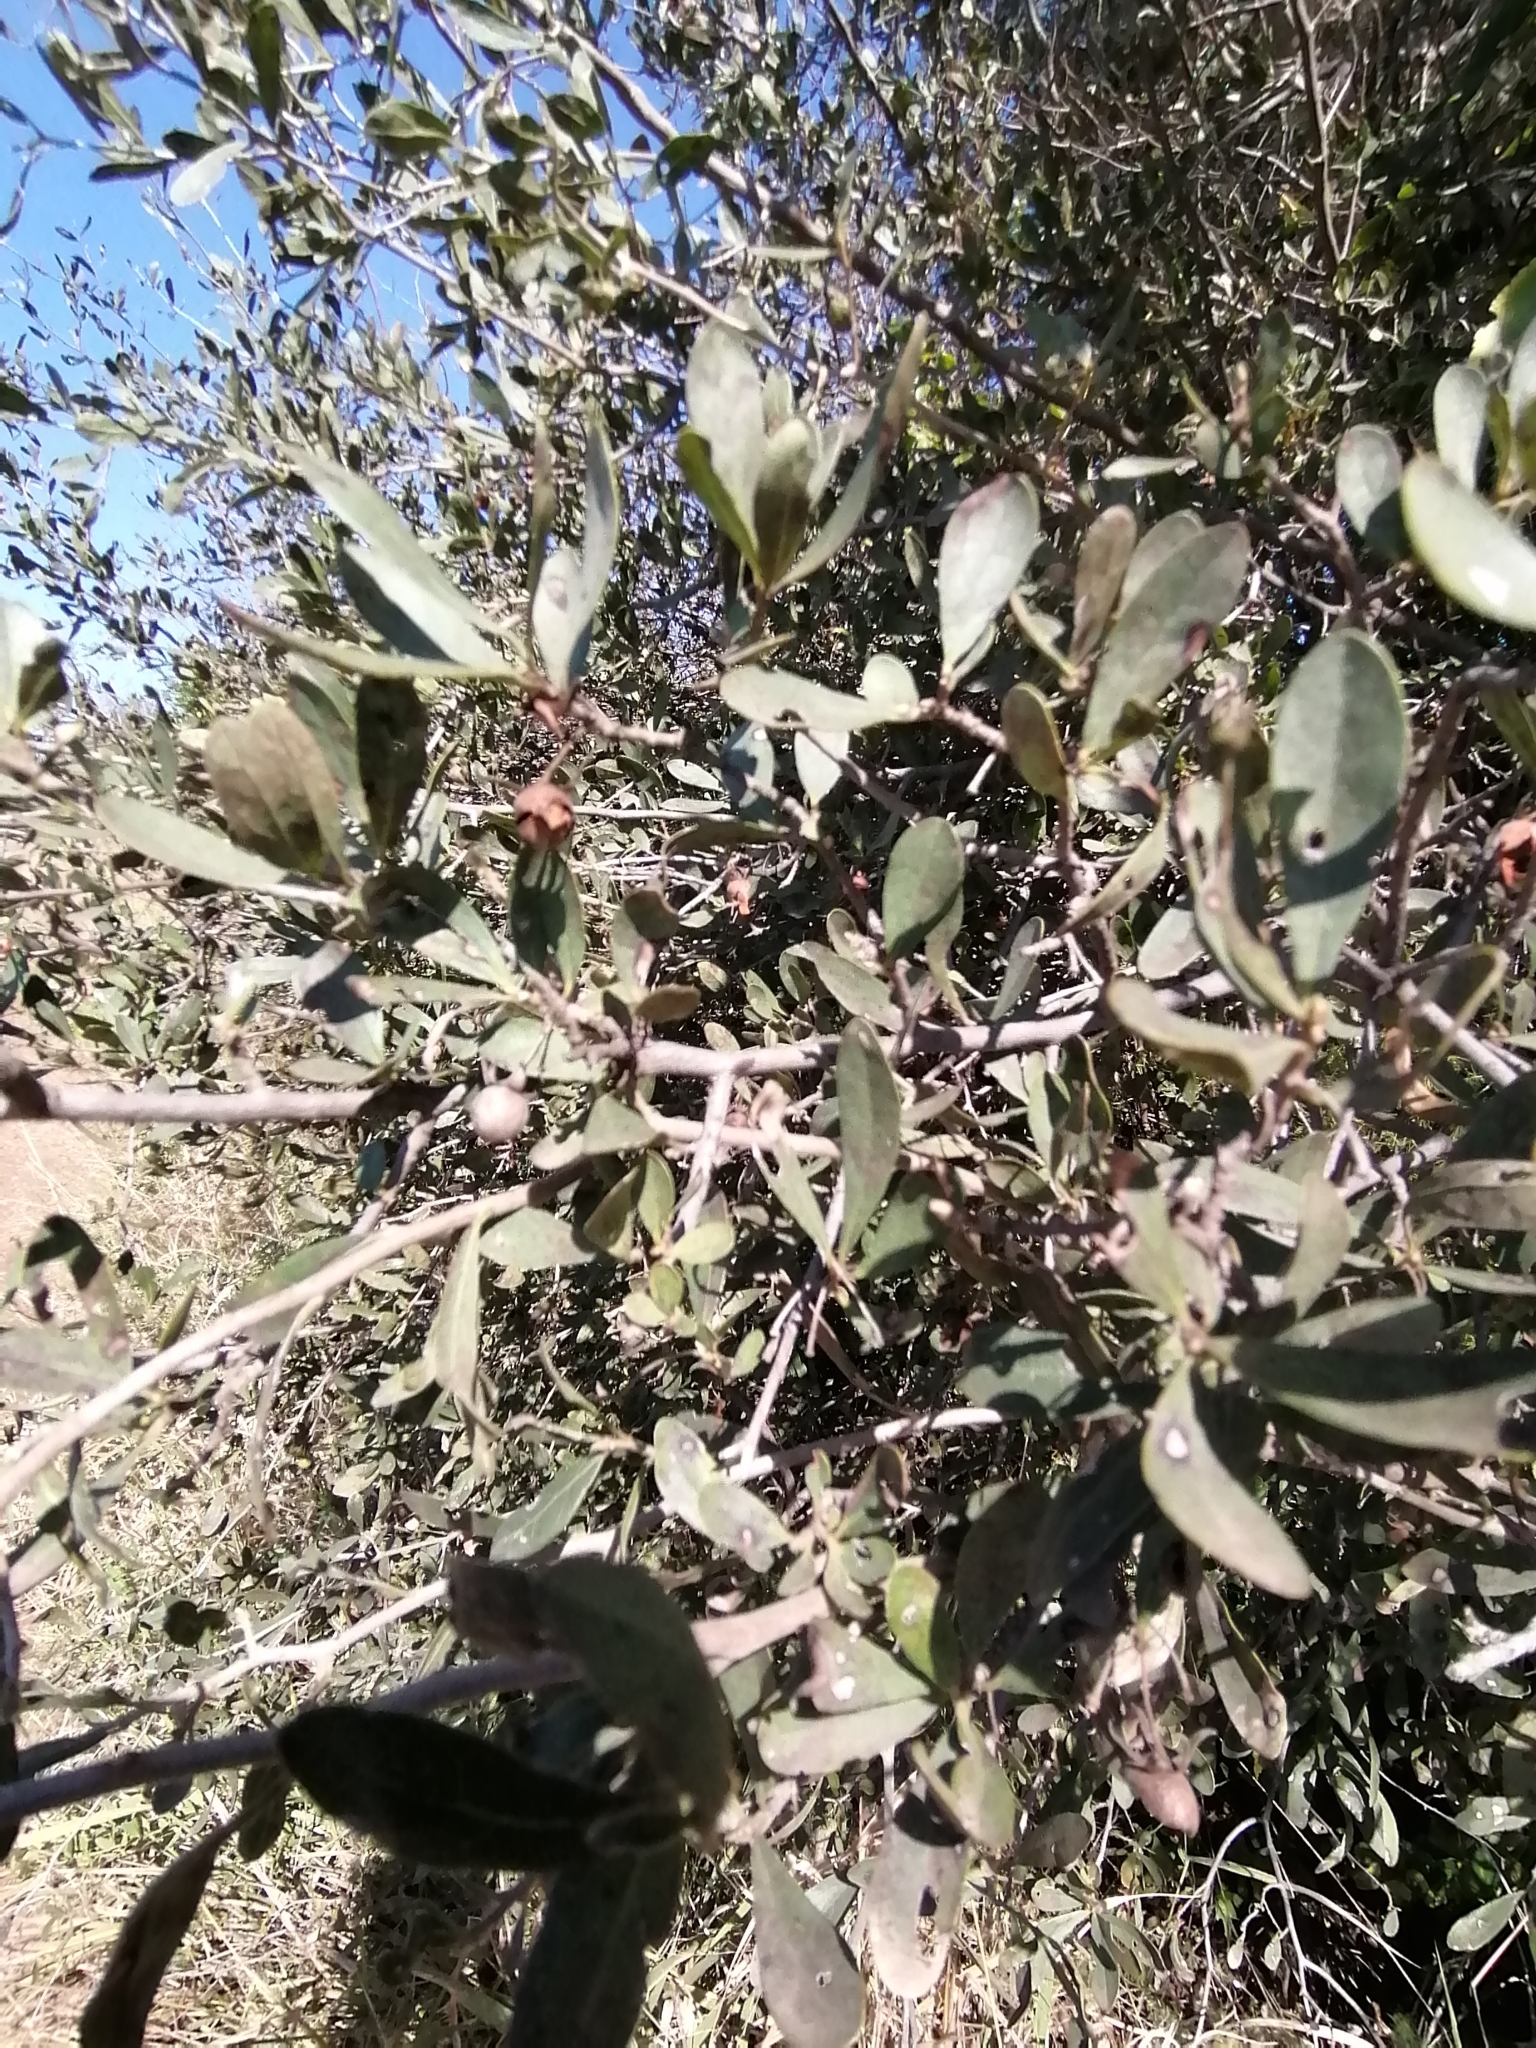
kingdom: Plantae
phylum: Tracheophyta
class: Magnoliopsida
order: Ericales
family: Ebenaceae
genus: Euclea
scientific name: Euclea crispa
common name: Blue guarri
